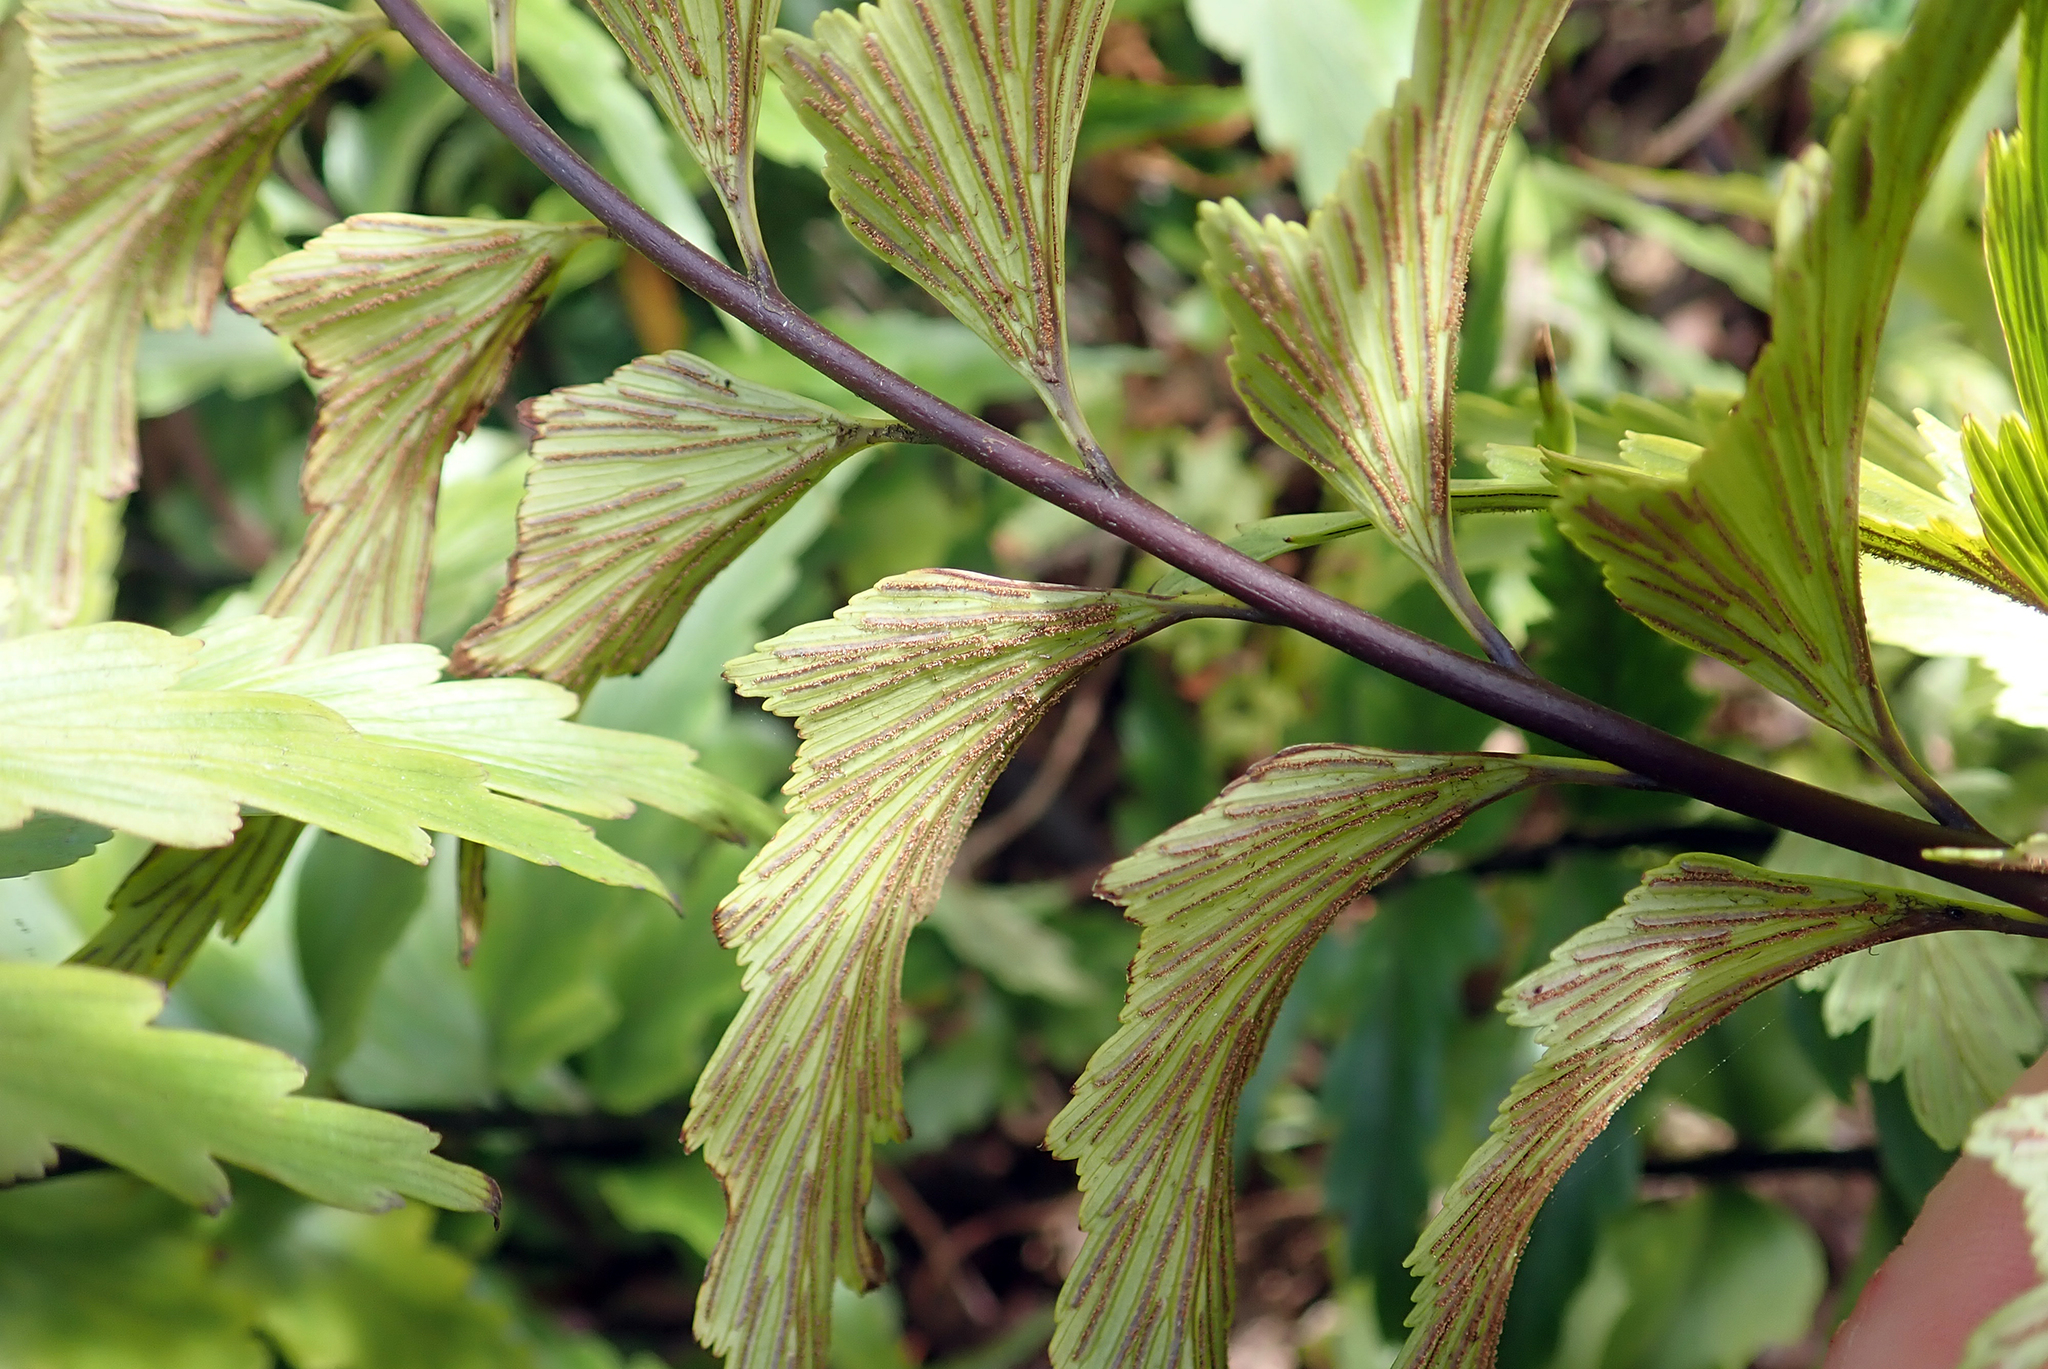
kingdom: Plantae
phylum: Tracheophyta
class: Polypodiopsida
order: Polypodiales
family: Aspleniaceae
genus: Asplenium
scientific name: Asplenium polyodon
